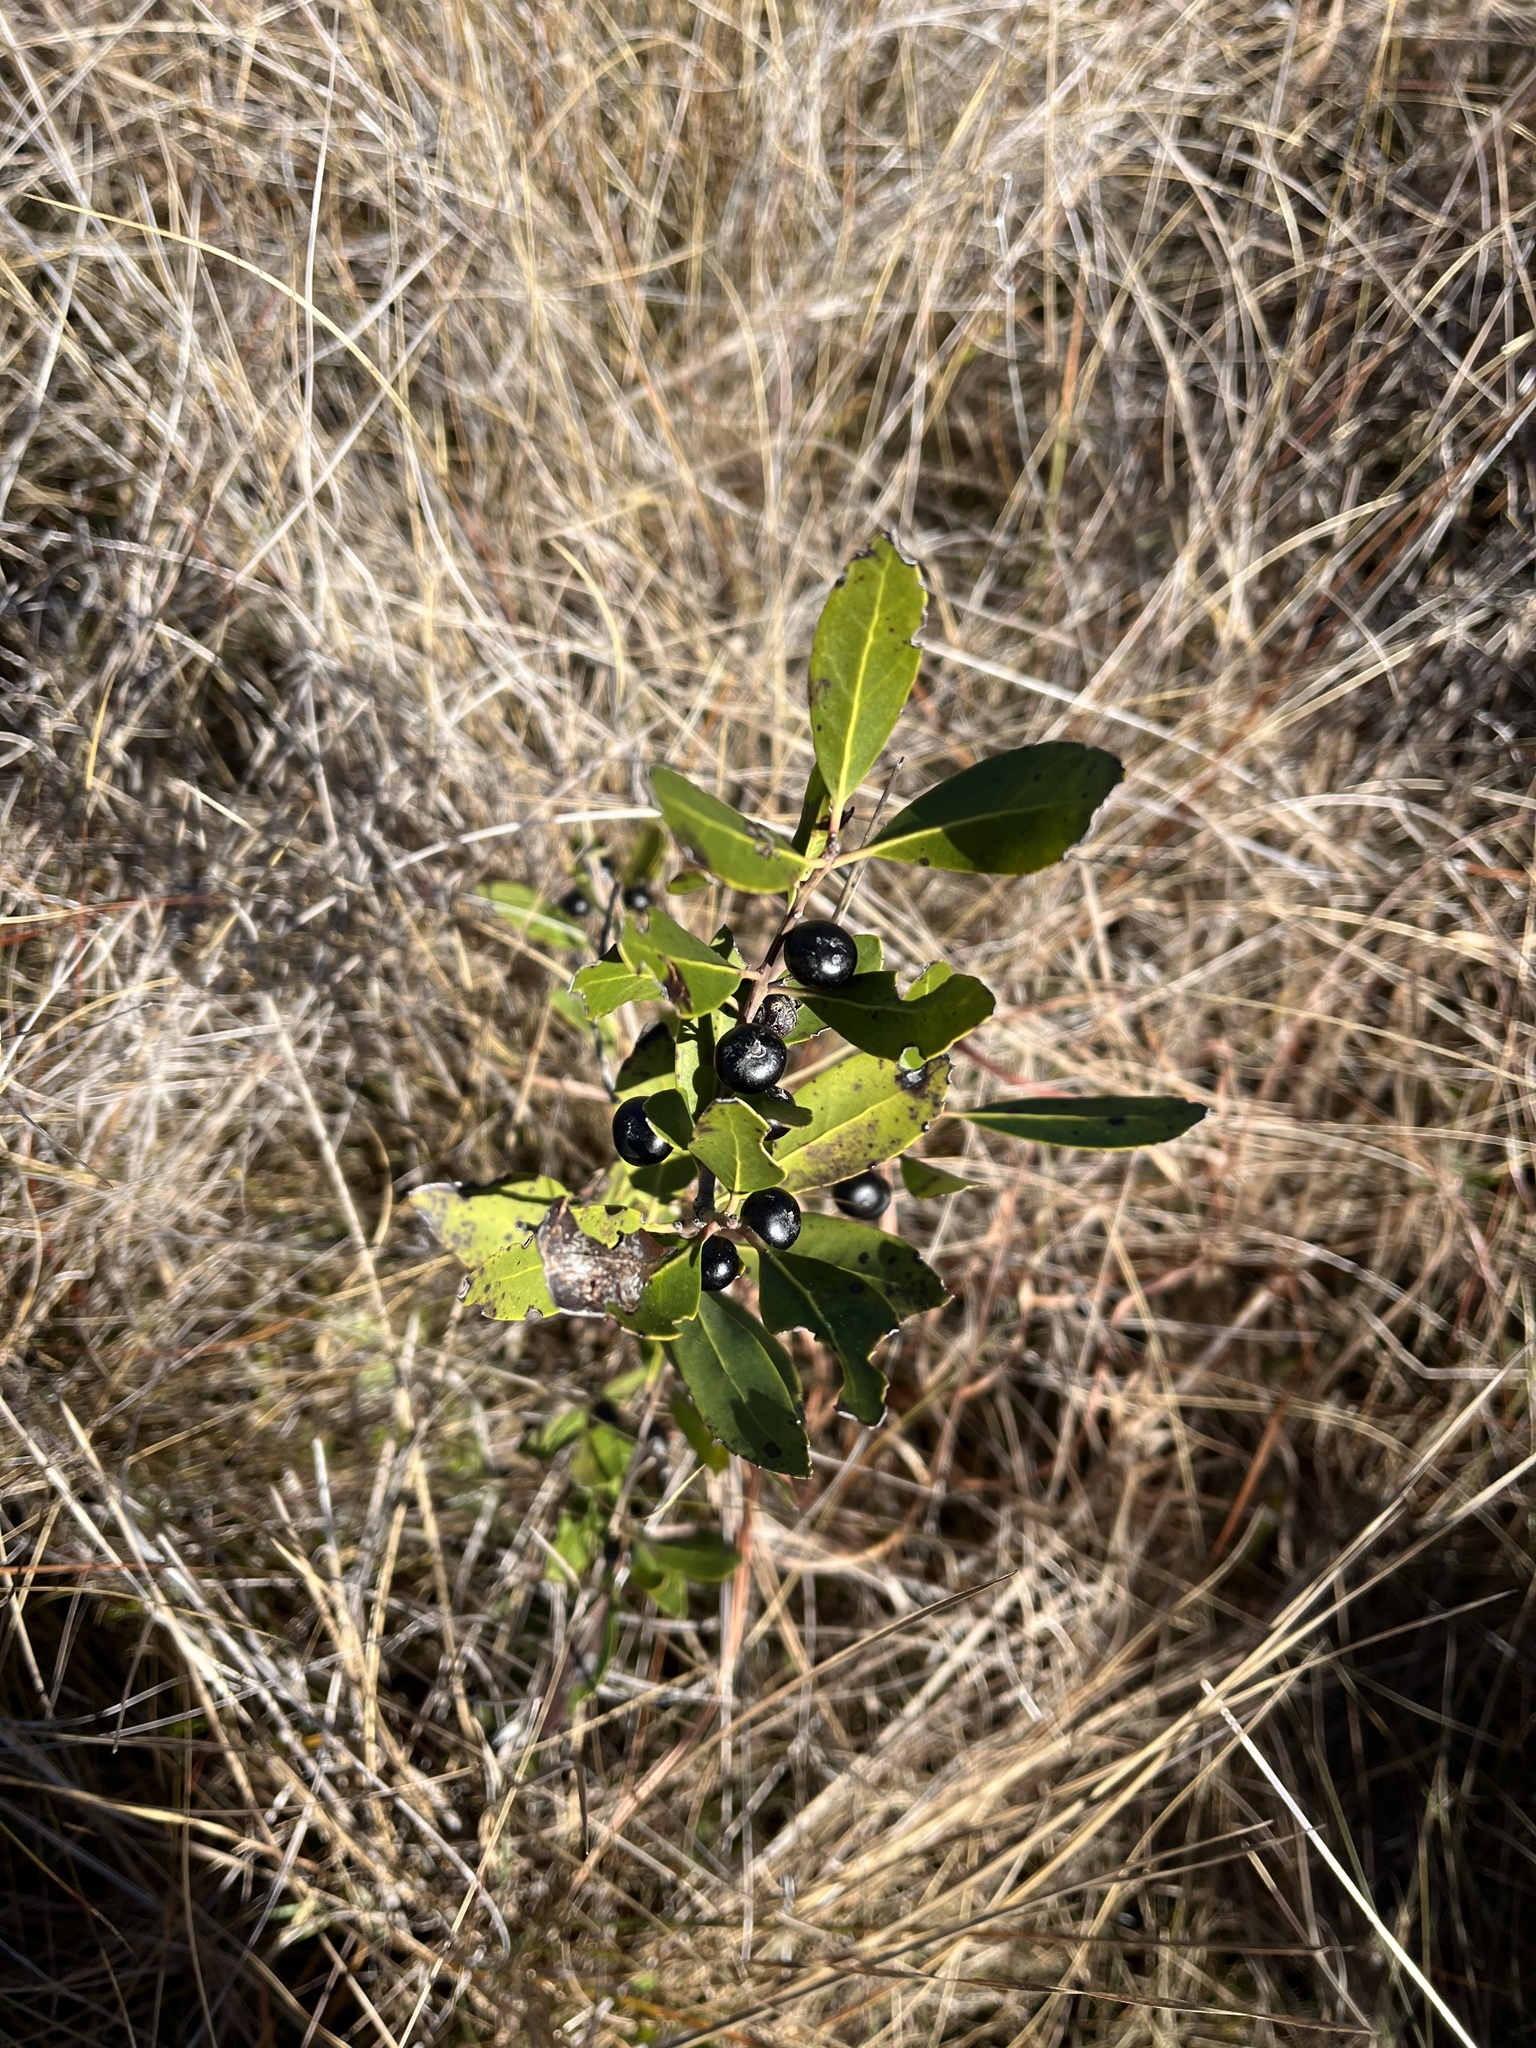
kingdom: Plantae
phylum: Tracheophyta
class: Magnoliopsida
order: Aquifoliales
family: Aquifoliaceae
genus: Ilex
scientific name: Ilex glabra
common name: Bitter gallberry
